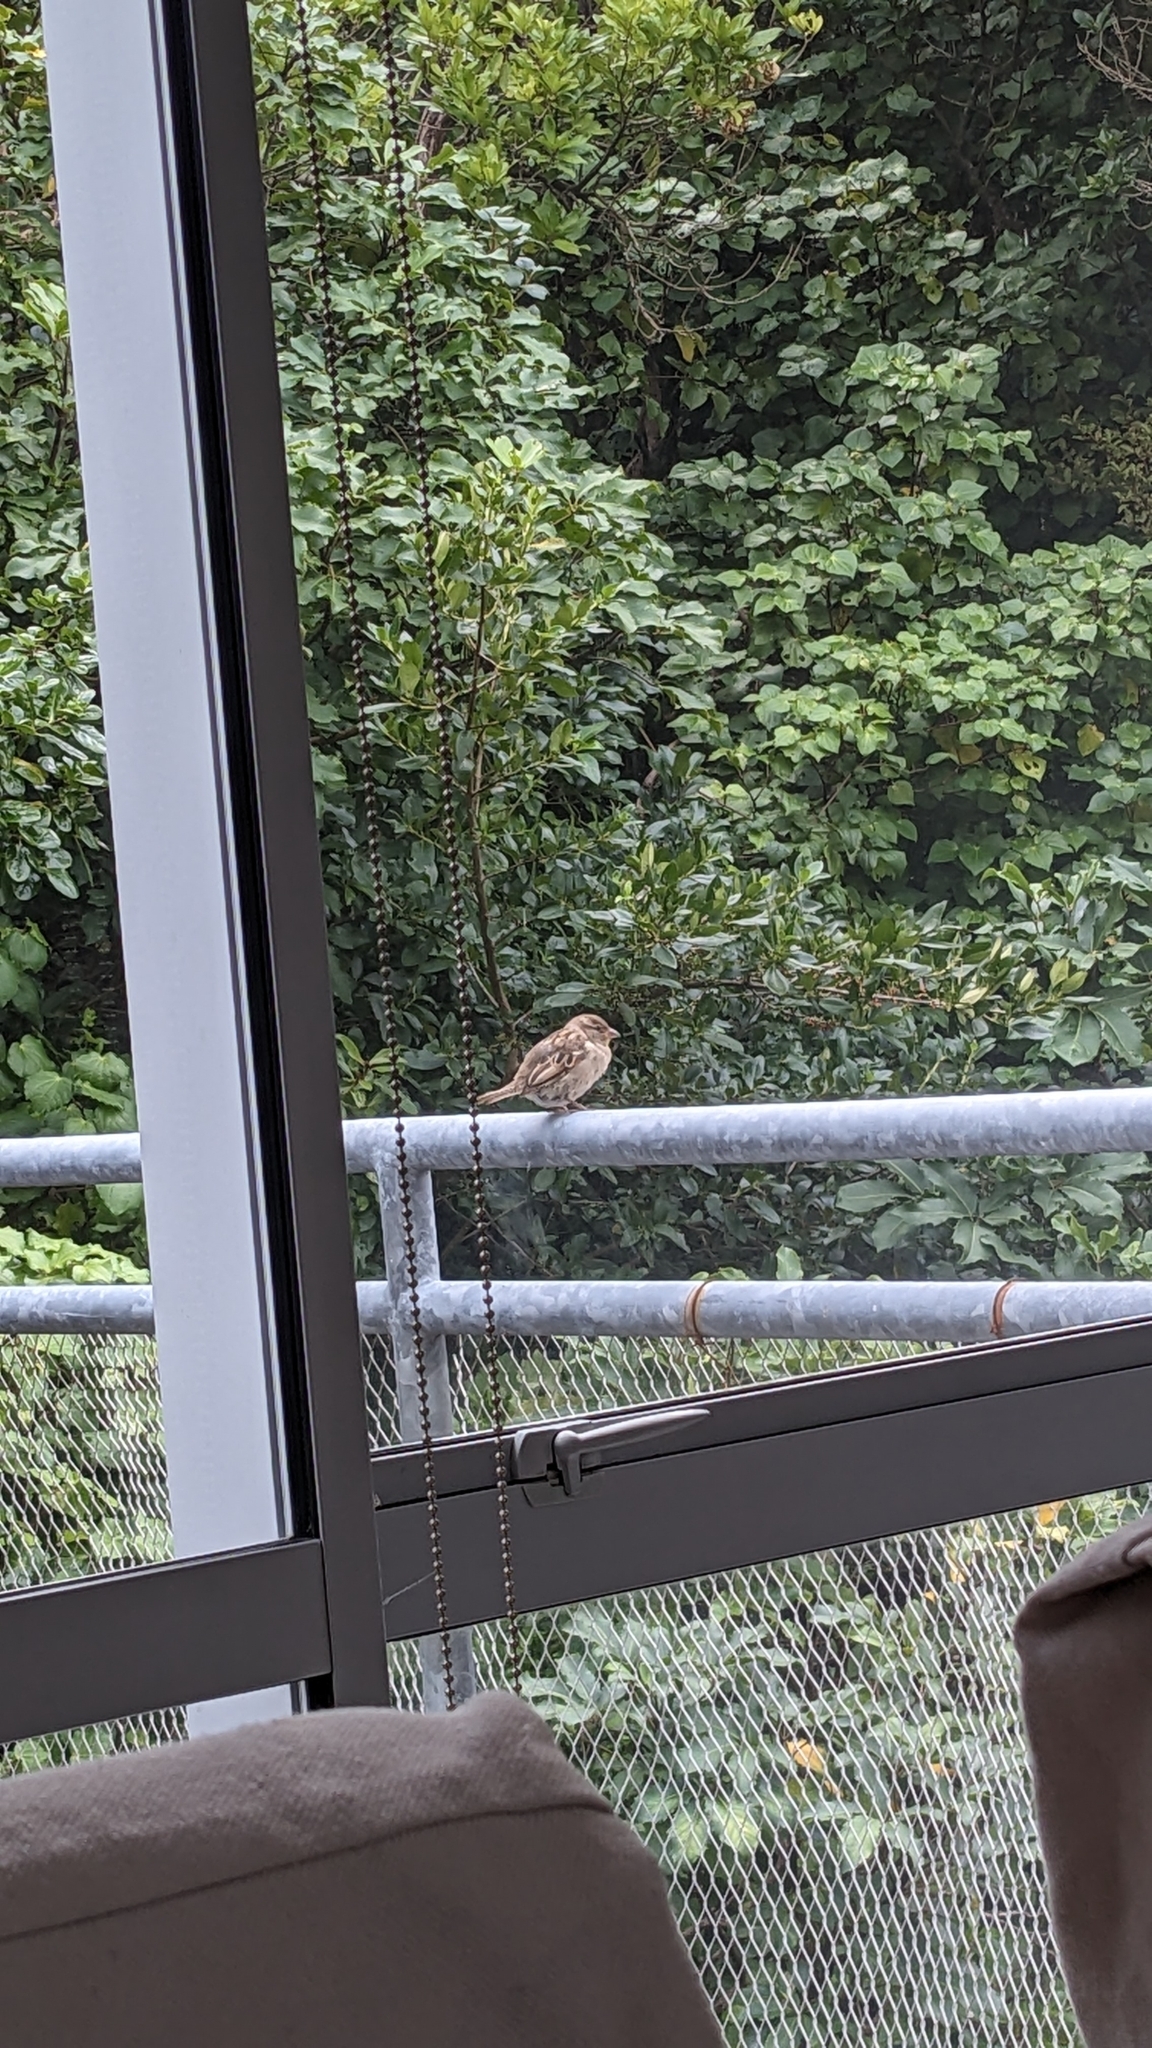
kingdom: Animalia
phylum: Chordata
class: Aves
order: Passeriformes
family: Passeridae
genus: Passer
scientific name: Passer domesticus
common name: House sparrow
